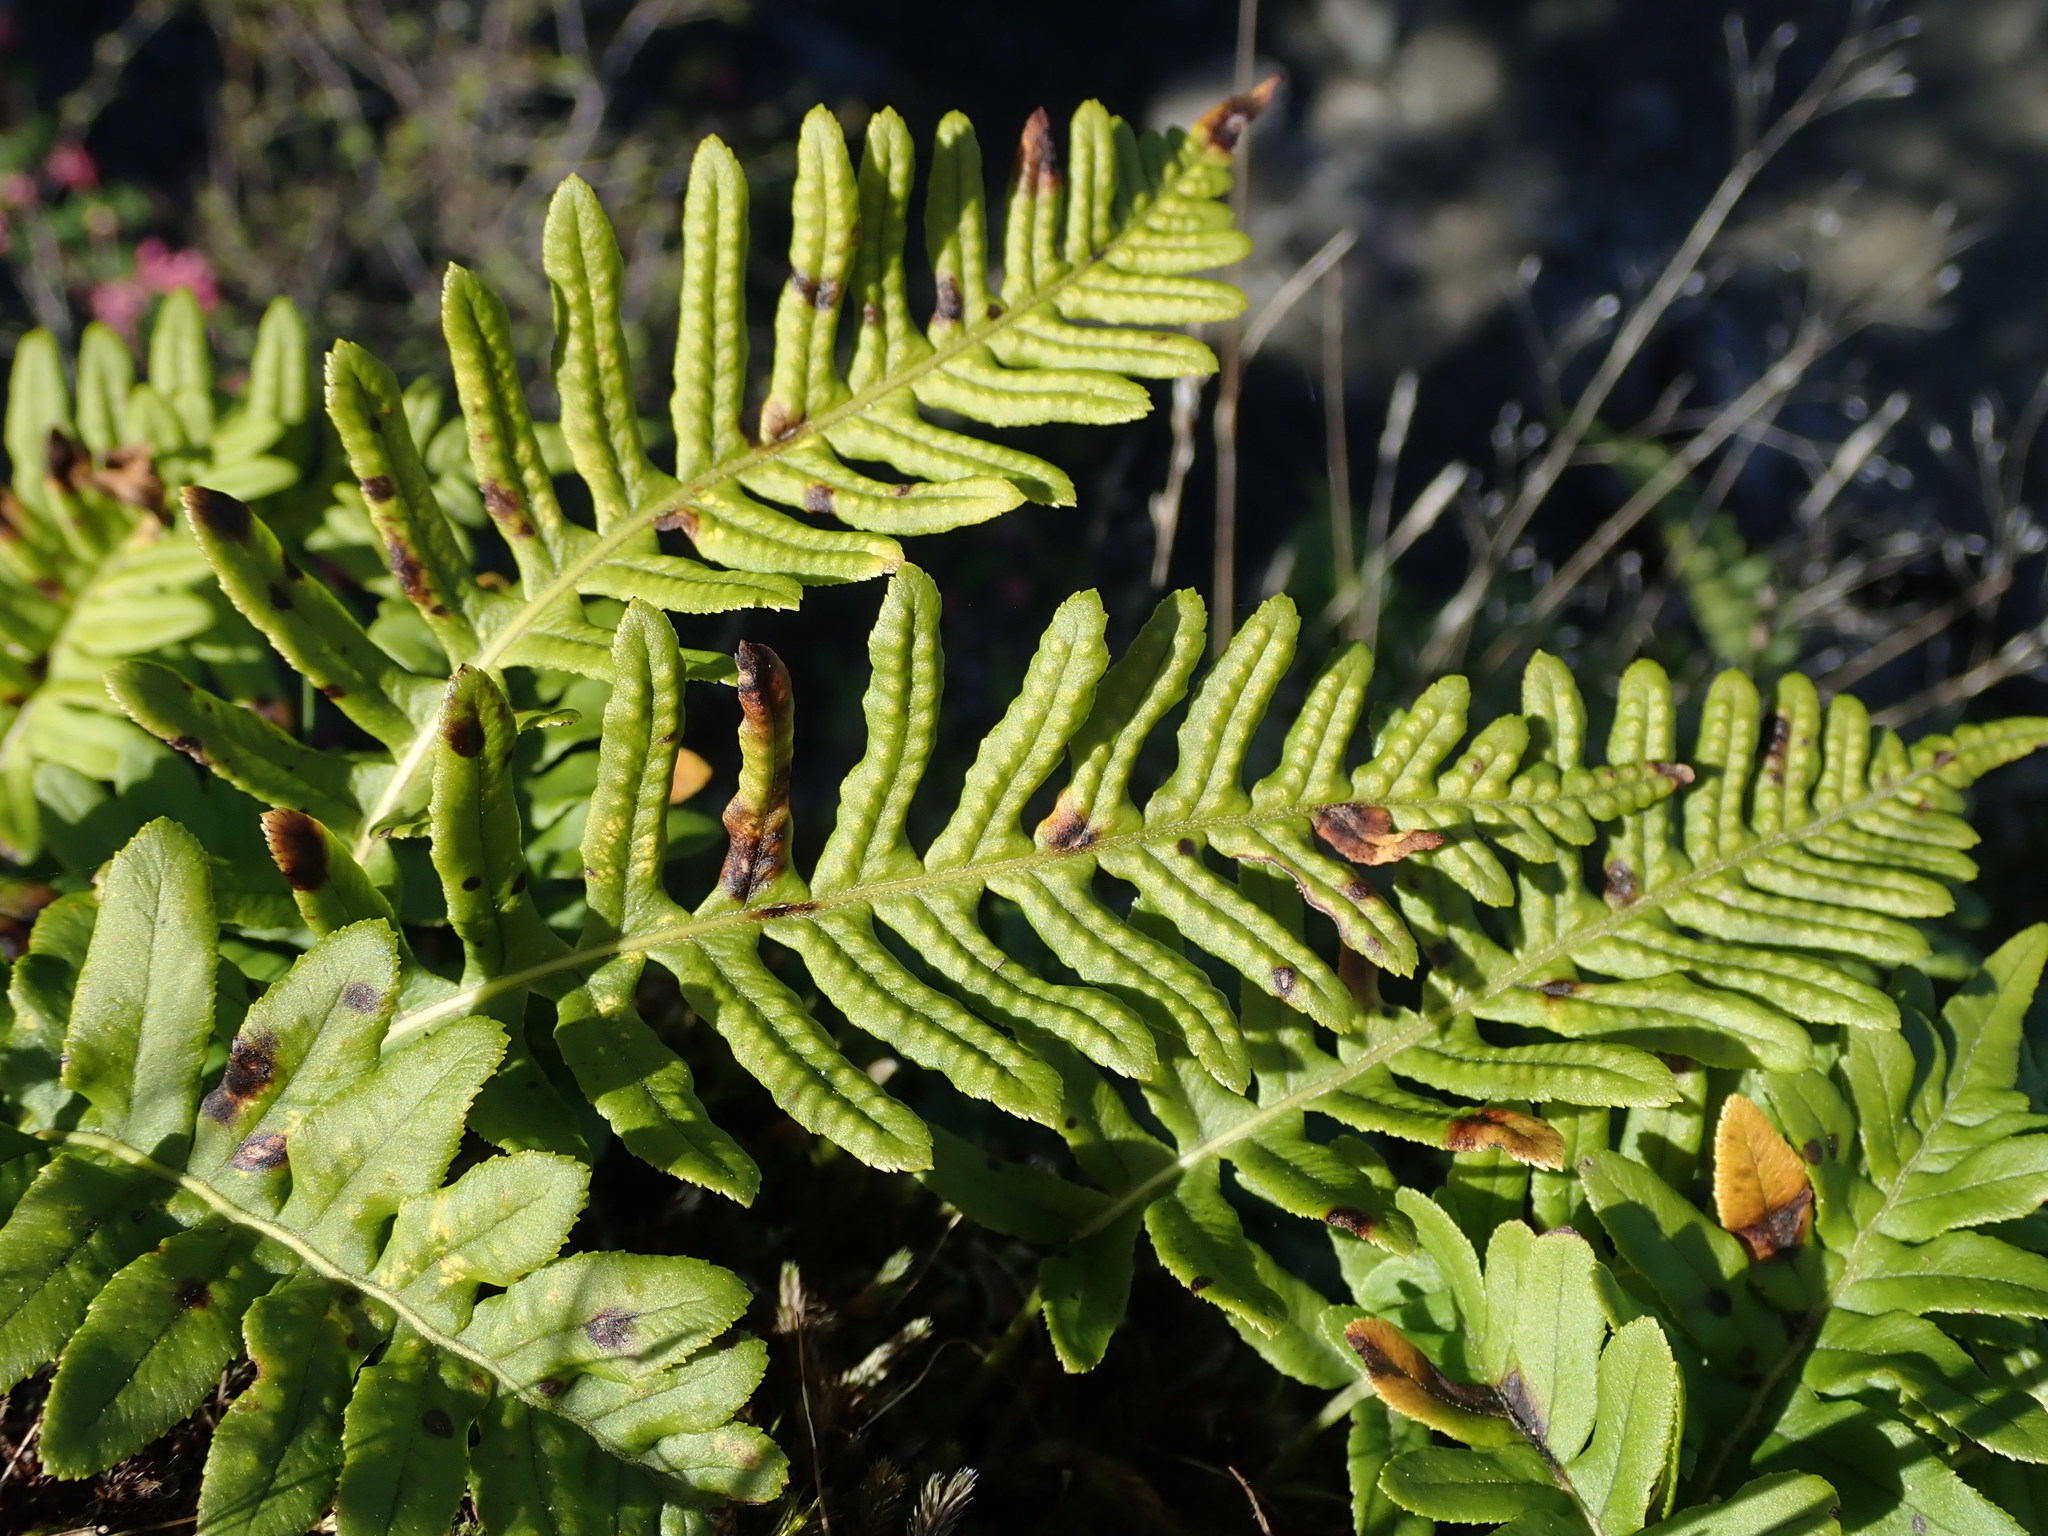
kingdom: Plantae
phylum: Tracheophyta
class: Polypodiopsida
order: Polypodiales
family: Polypodiaceae
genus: Polypodium
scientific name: Polypodium glycyrrhiza
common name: Licorice fern
